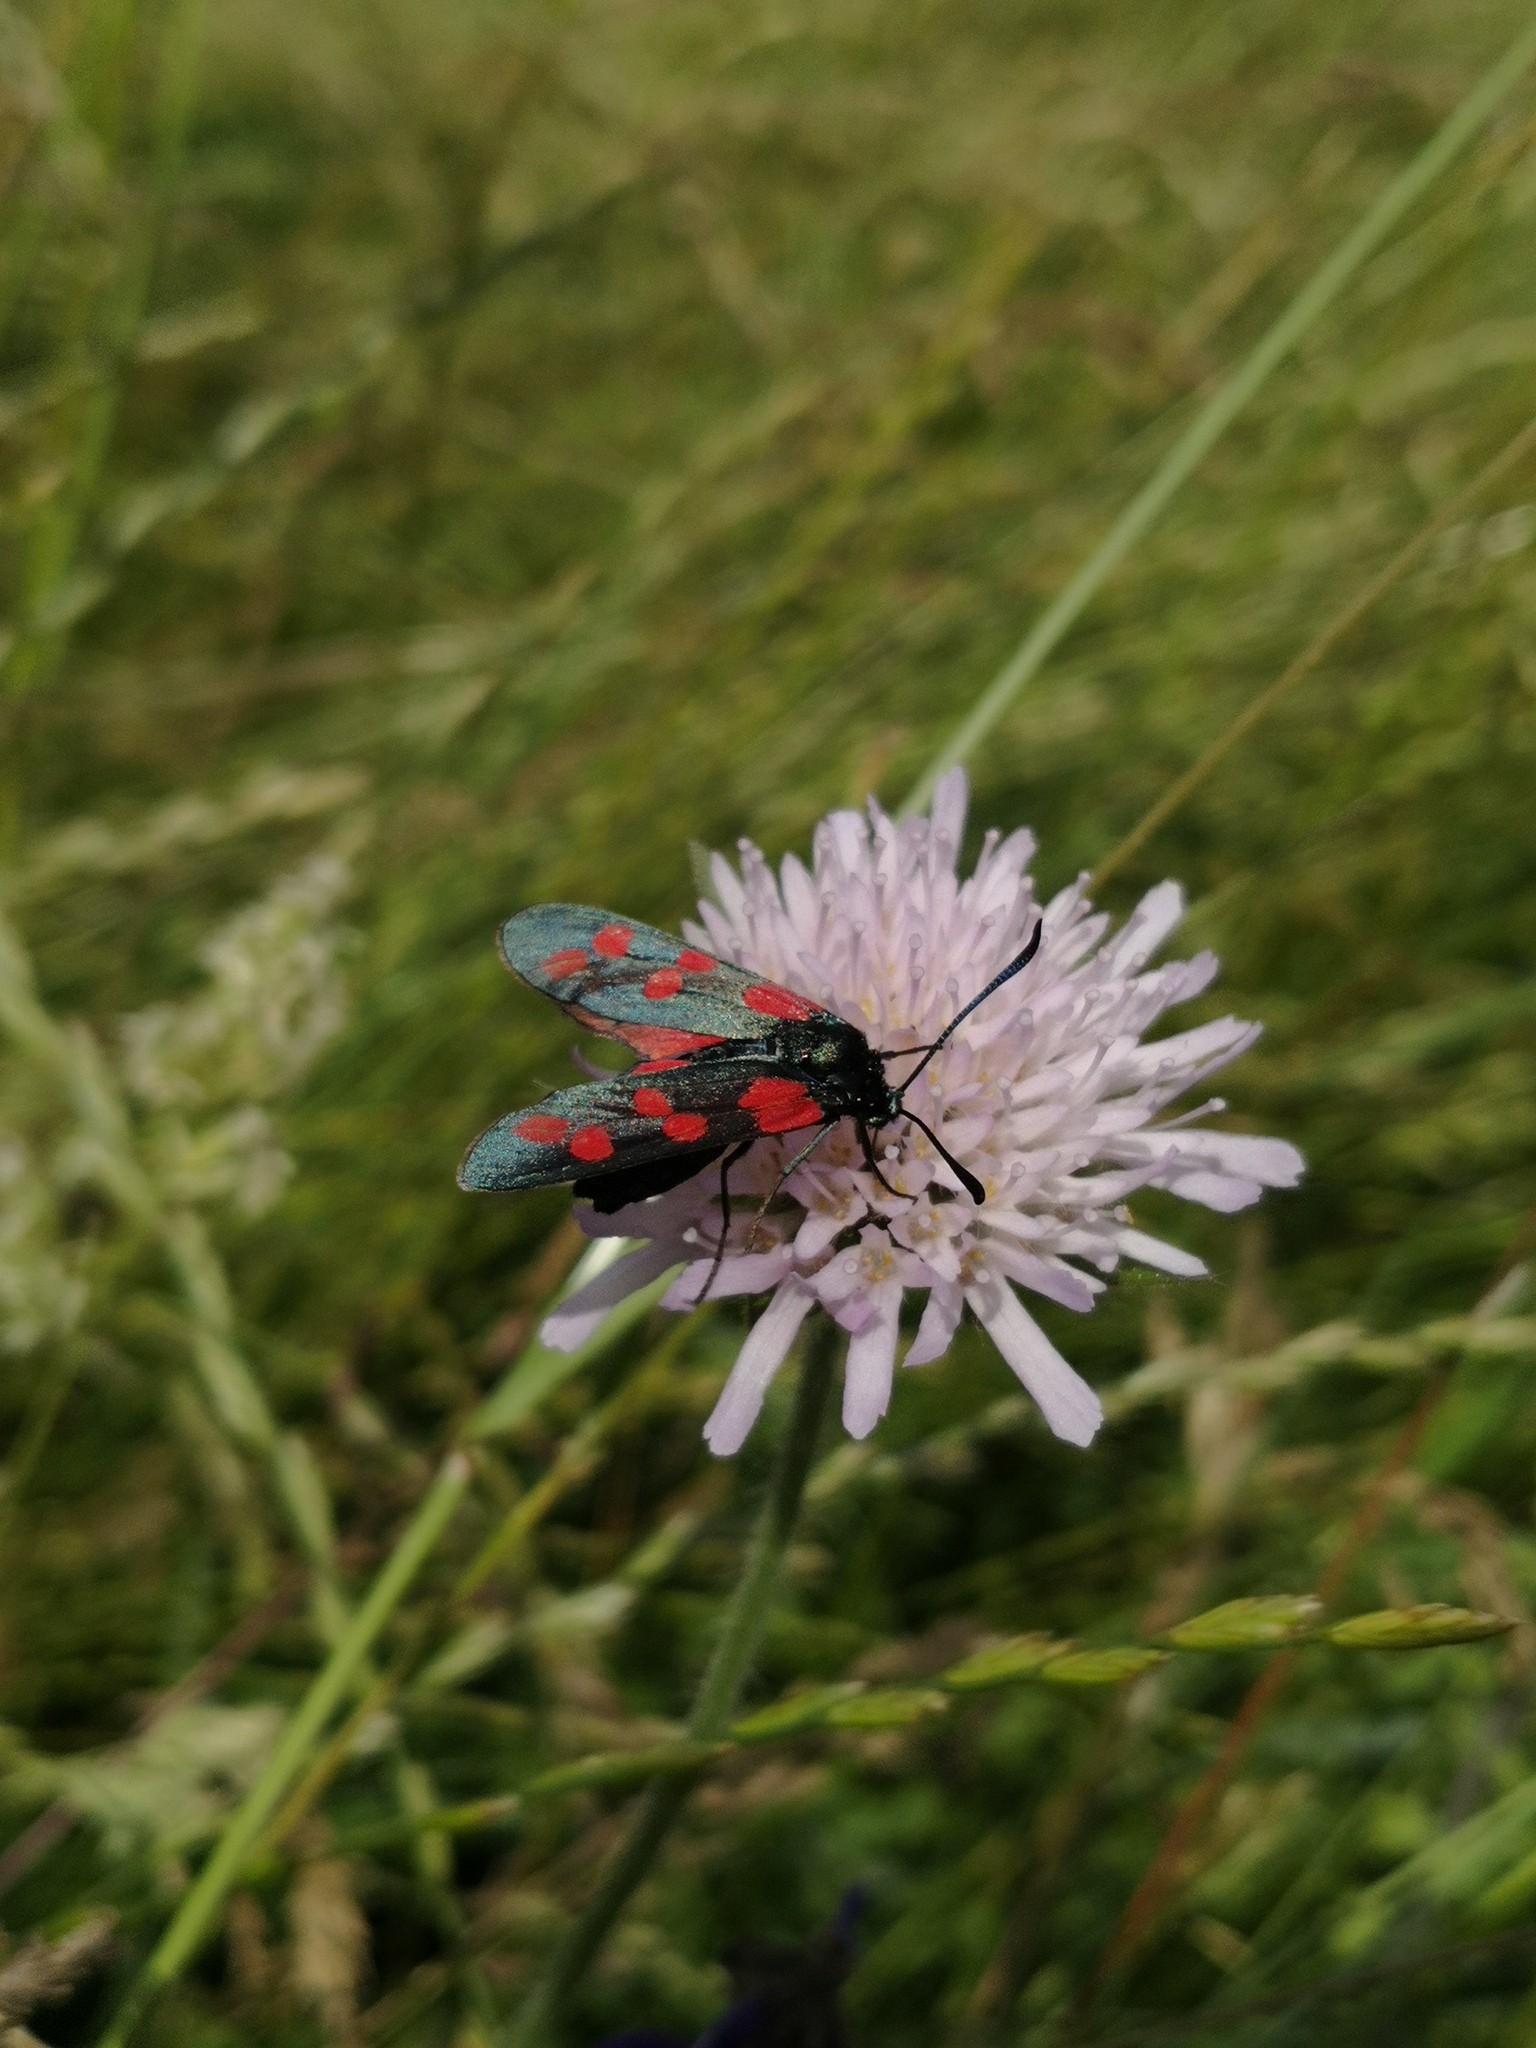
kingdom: Animalia
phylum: Arthropoda
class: Insecta
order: Lepidoptera
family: Zygaenidae
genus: Zygaena
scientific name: Zygaena filipendulae
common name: Six-spot burnet
